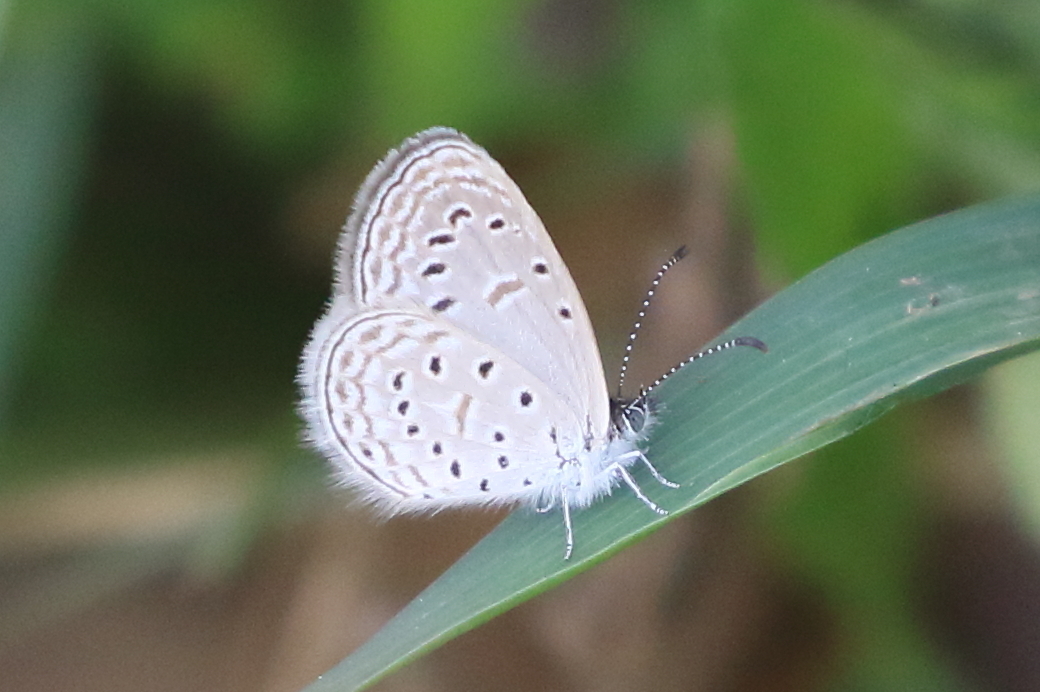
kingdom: Animalia
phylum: Arthropoda
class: Insecta
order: Lepidoptera
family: Lycaenidae
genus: Zizula
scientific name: Zizula hylax
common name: Gaika blue
